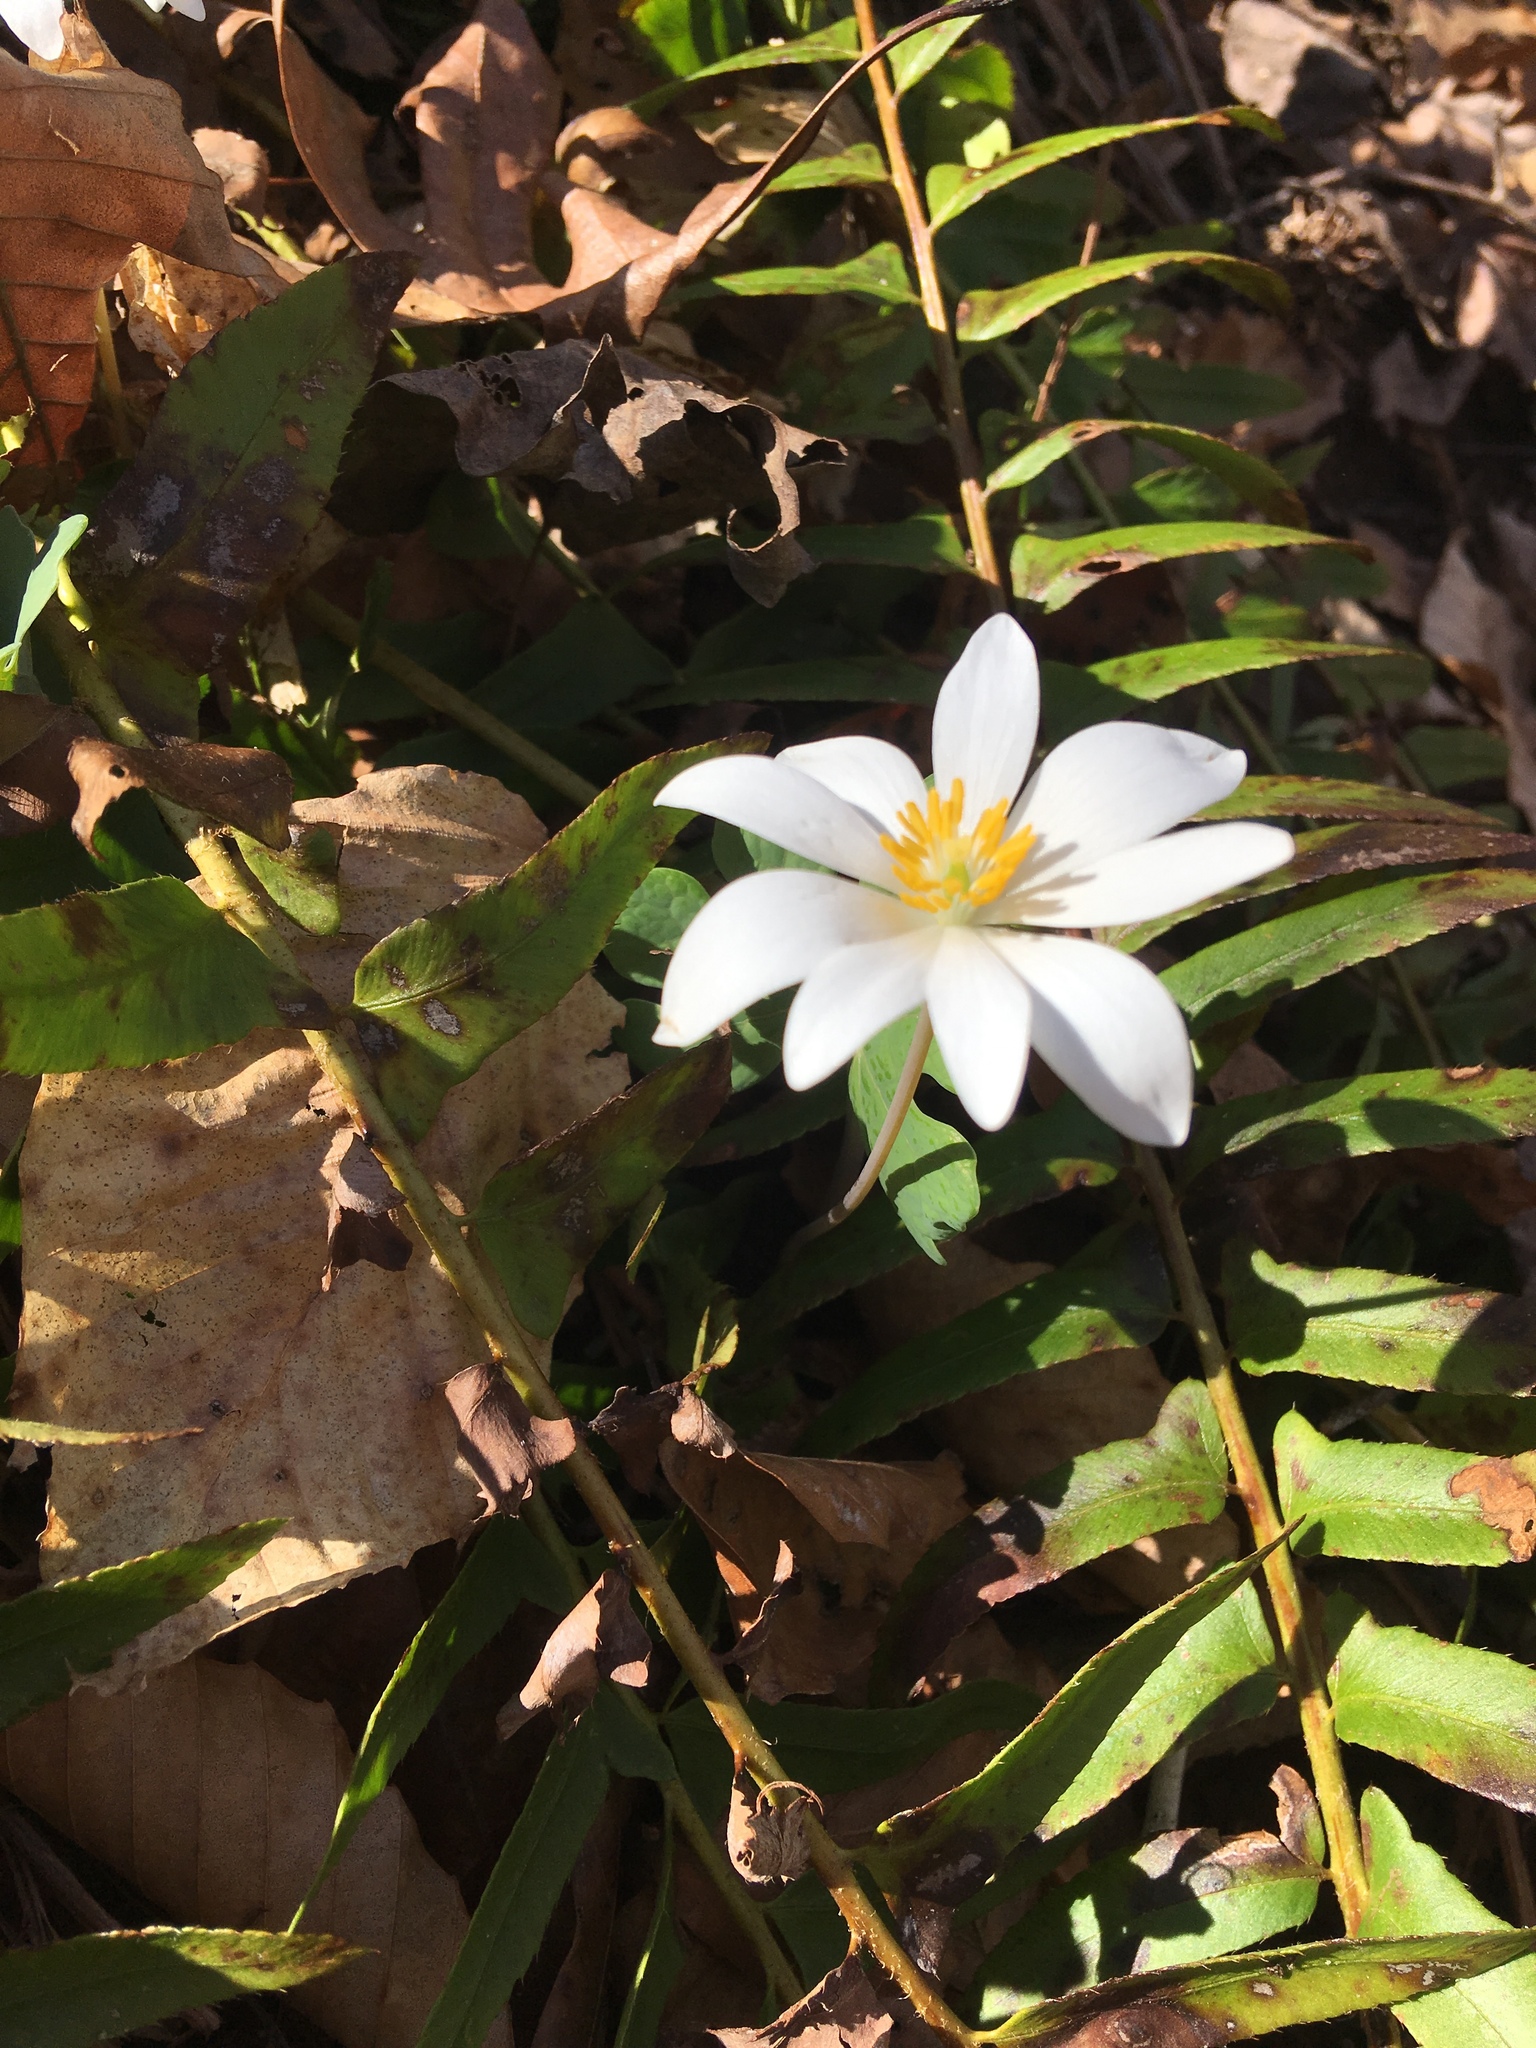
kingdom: Plantae
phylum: Tracheophyta
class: Magnoliopsida
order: Ranunculales
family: Papaveraceae
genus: Sanguinaria
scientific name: Sanguinaria canadensis
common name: Bloodroot
